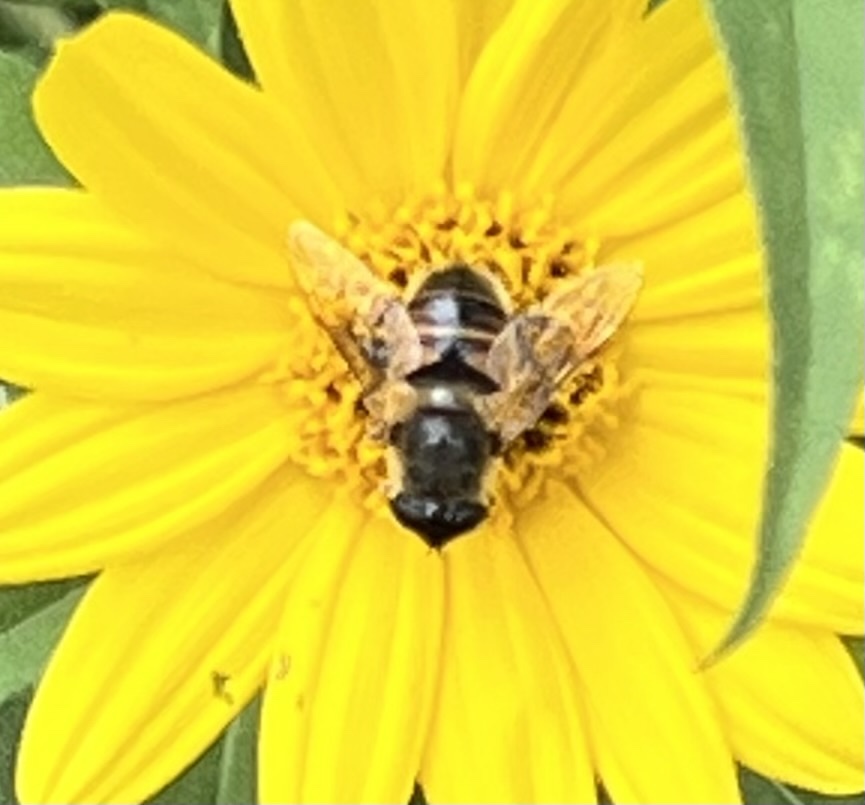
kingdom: Animalia
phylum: Arthropoda
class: Insecta
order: Diptera
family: Syrphidae
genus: Eristalis
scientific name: Eristalis tenax
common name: Drone fly
